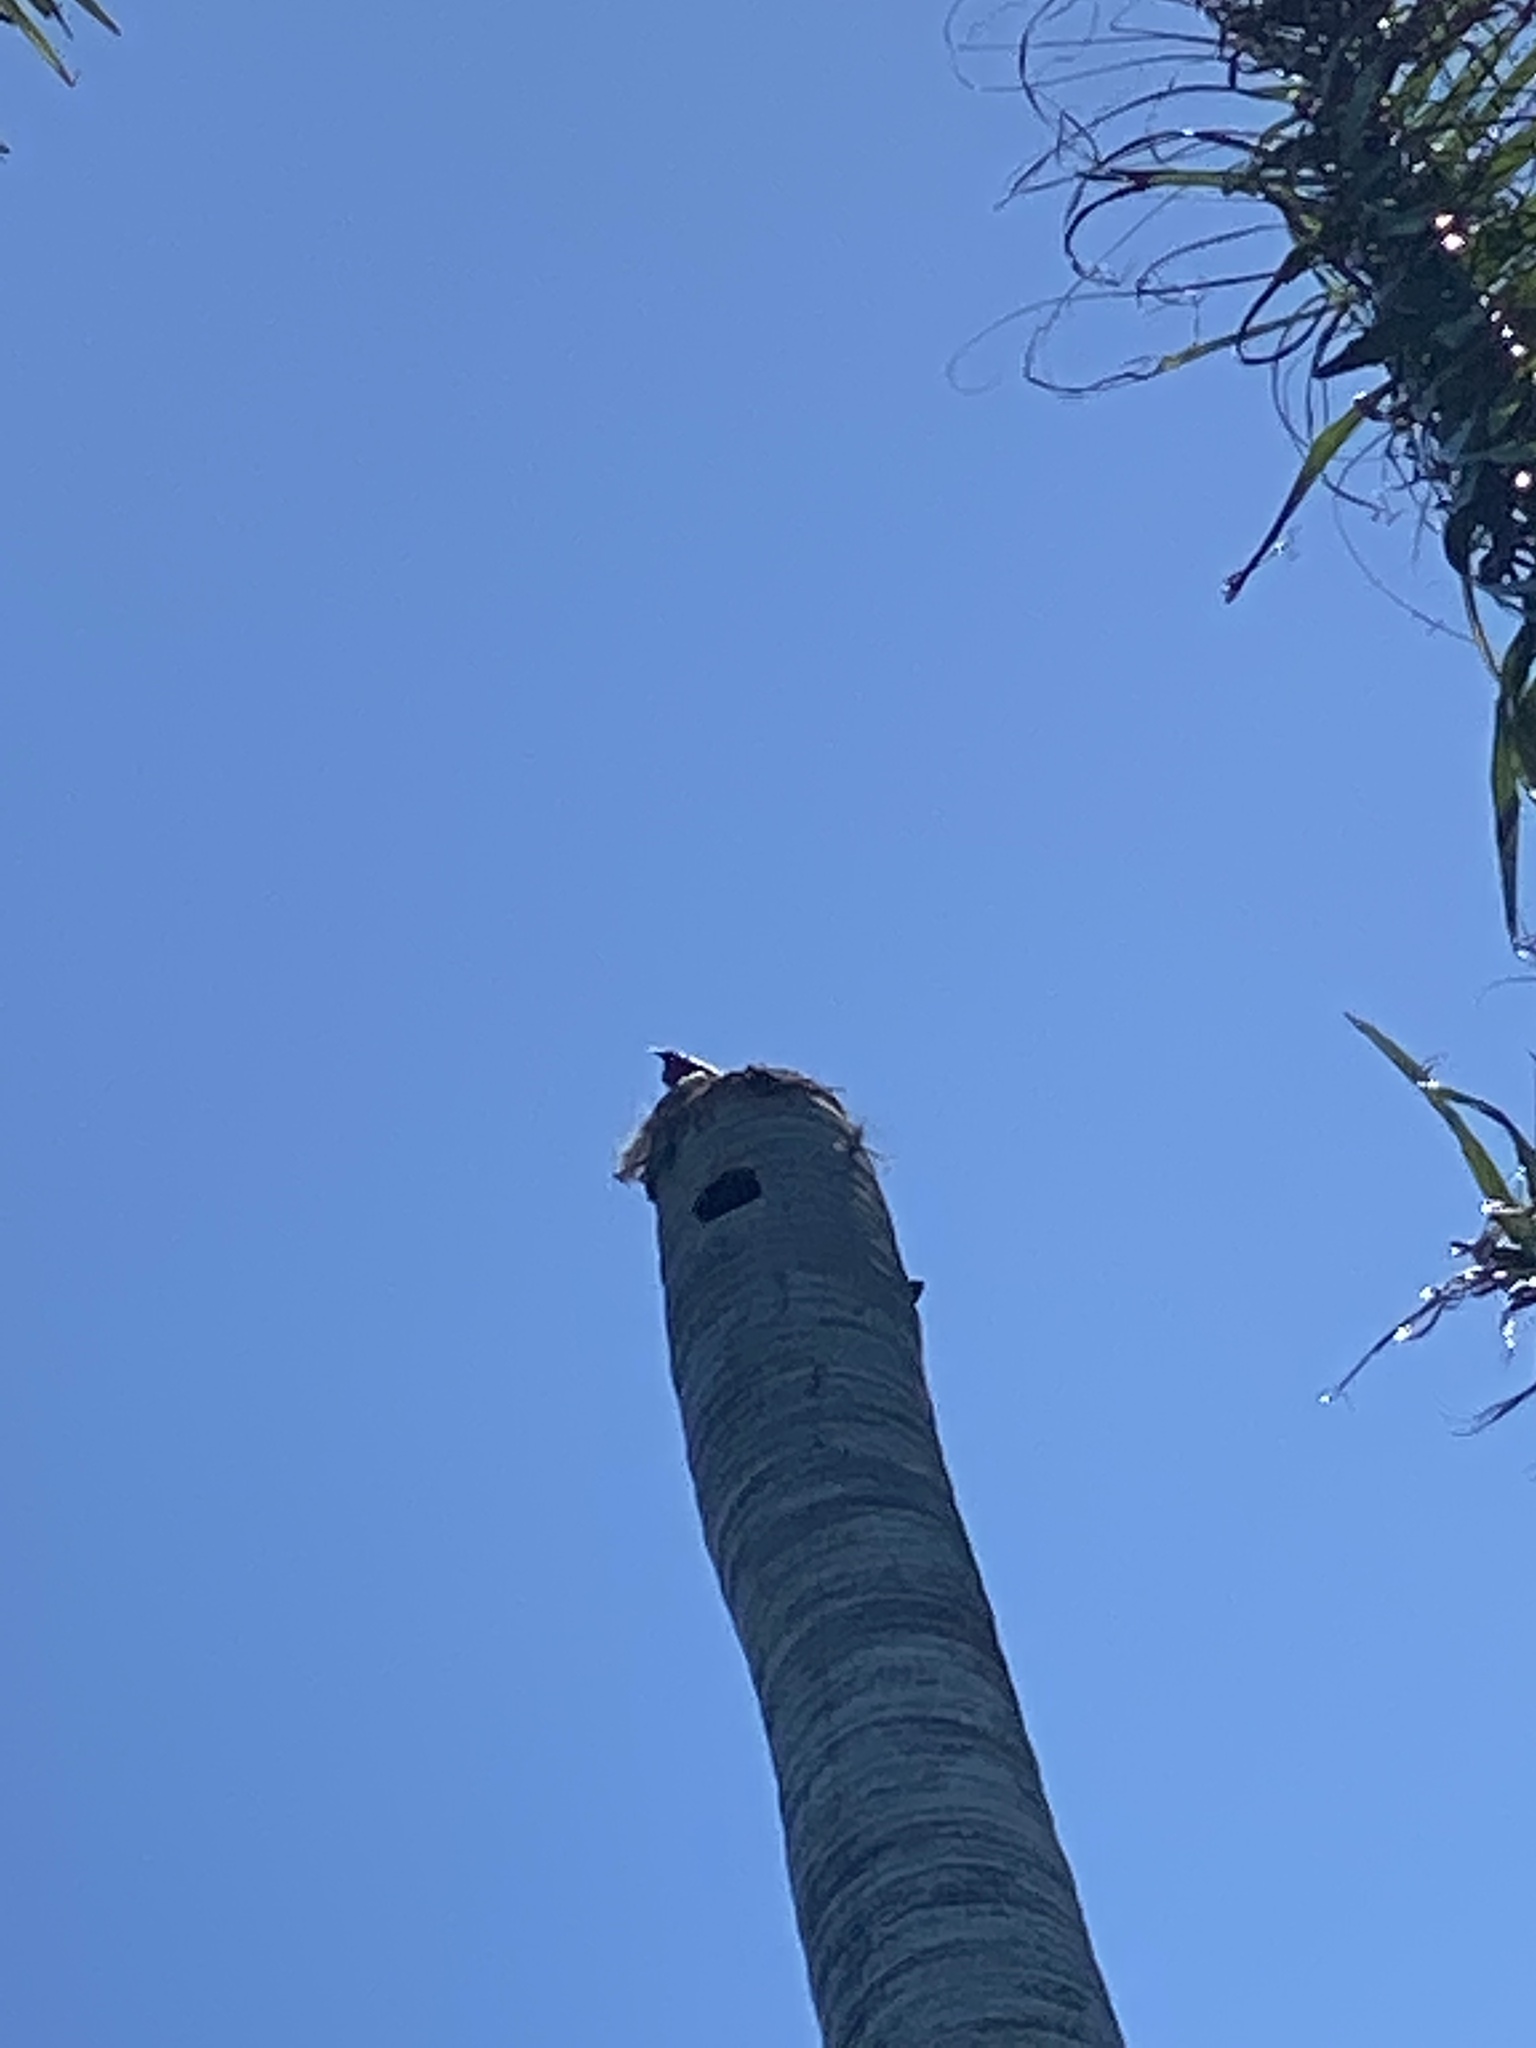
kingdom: Animalia
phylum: Chordata
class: Aves
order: Passeriformes
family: Sturnidae
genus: Gracula
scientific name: Gracula religiosa
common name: Common hill myna
